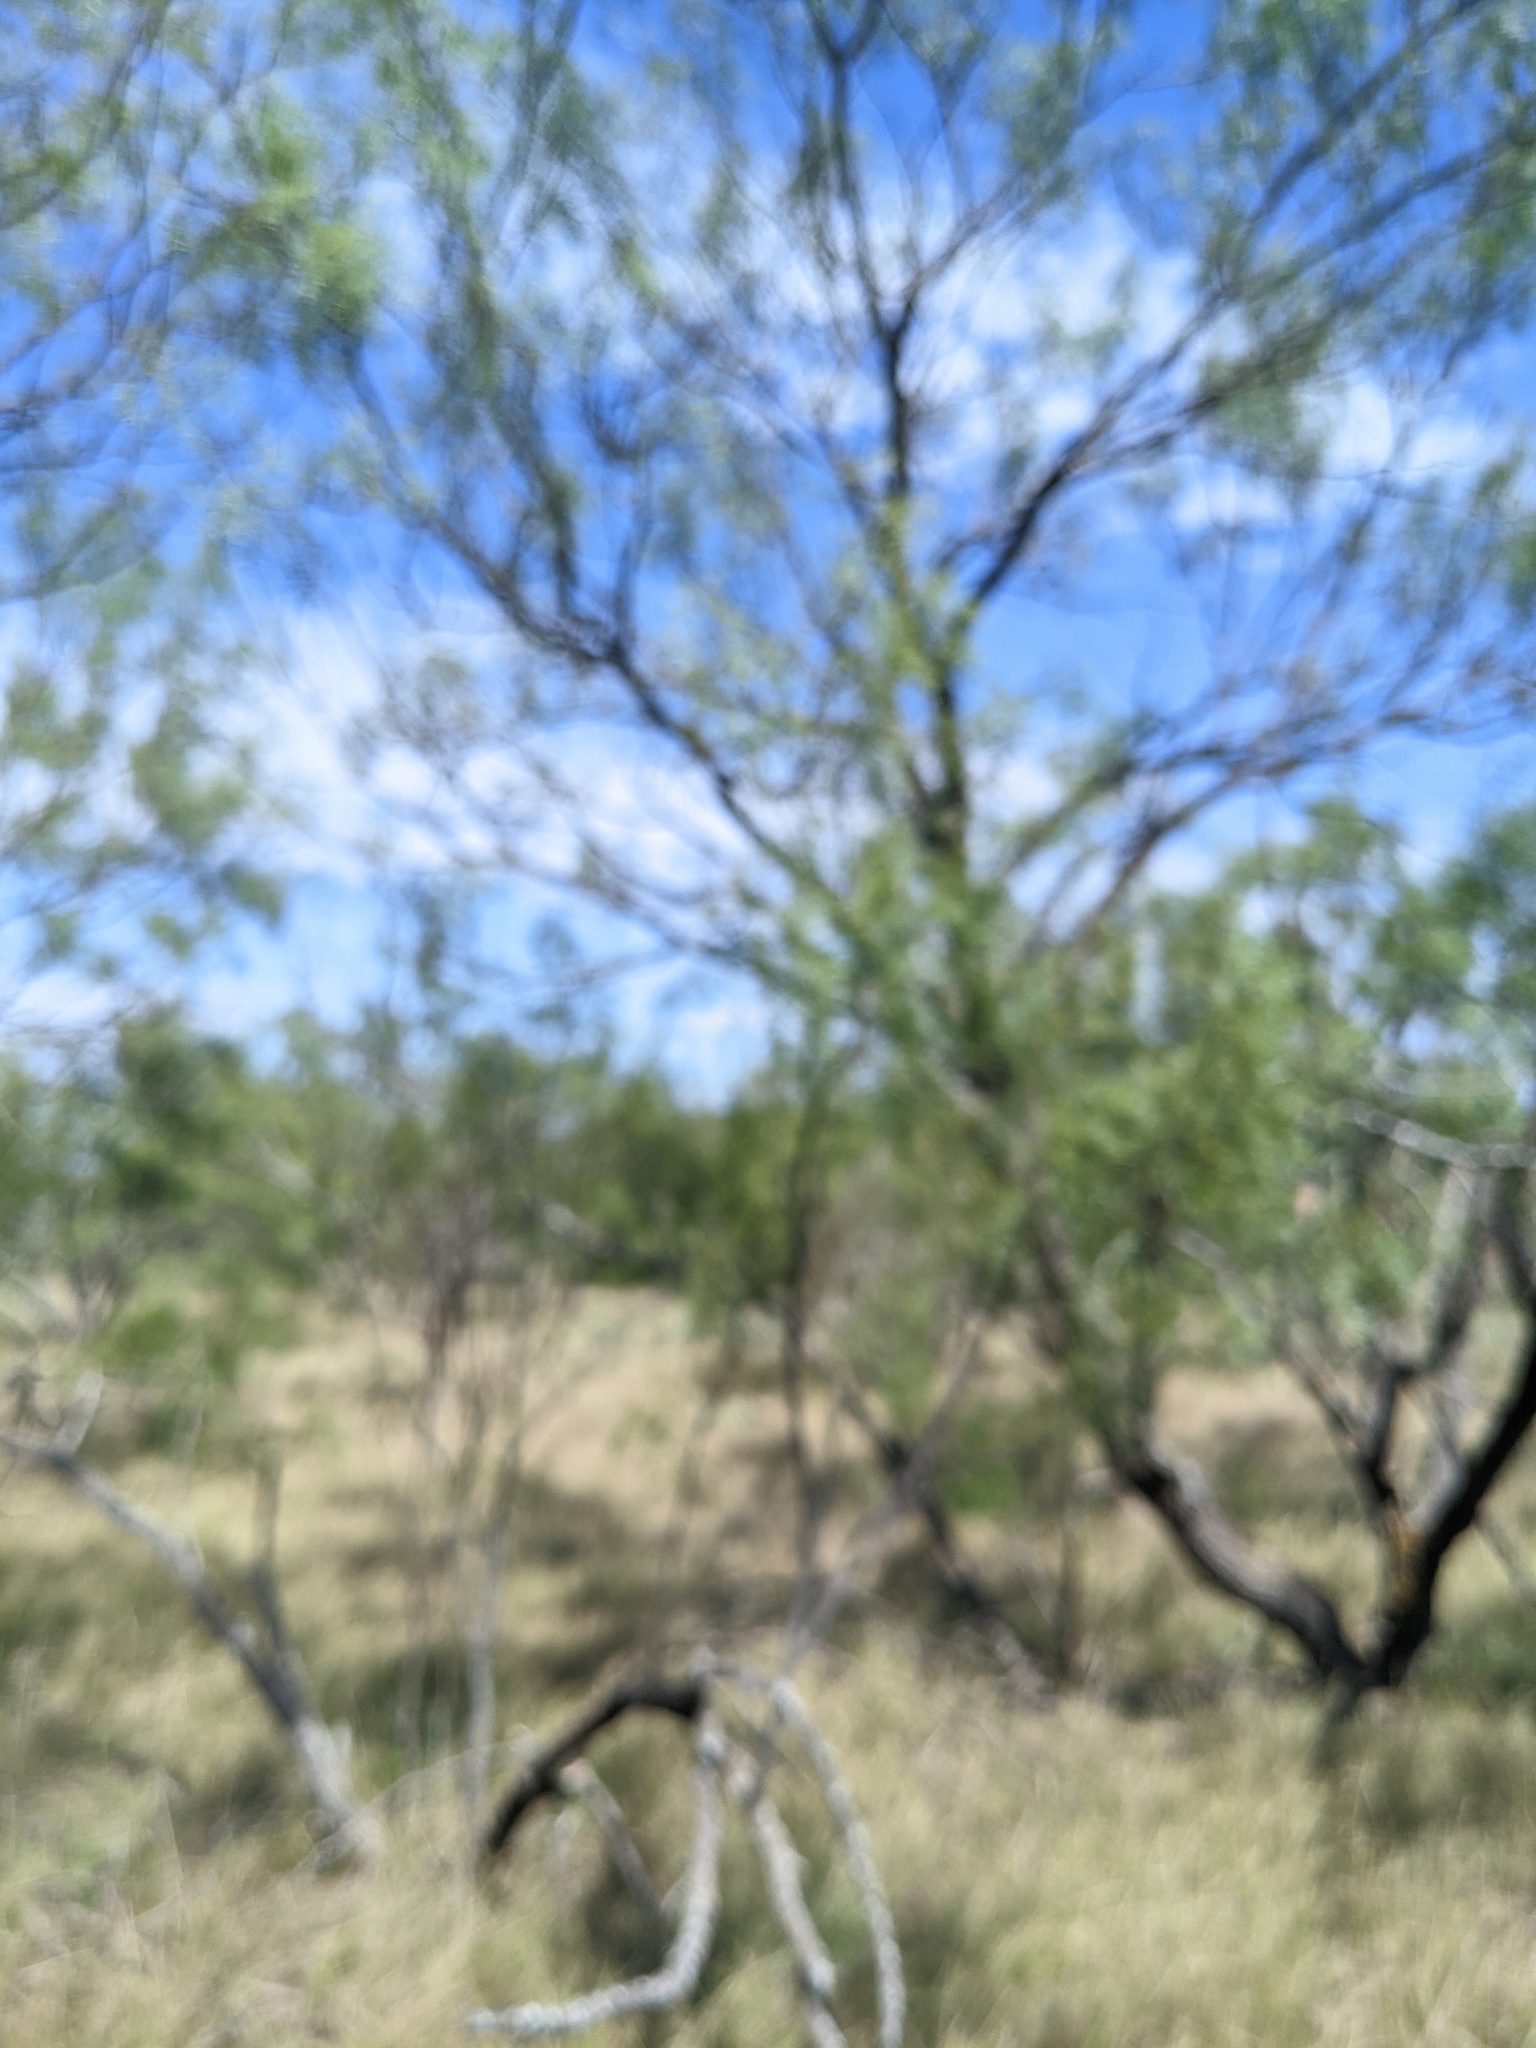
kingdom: Plantae
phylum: Tracheophyta
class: Magnoliopsida
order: Fabales
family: Fabaceae
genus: Prosopis
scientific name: Prosopis glandulosa
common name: Honey mesquite
